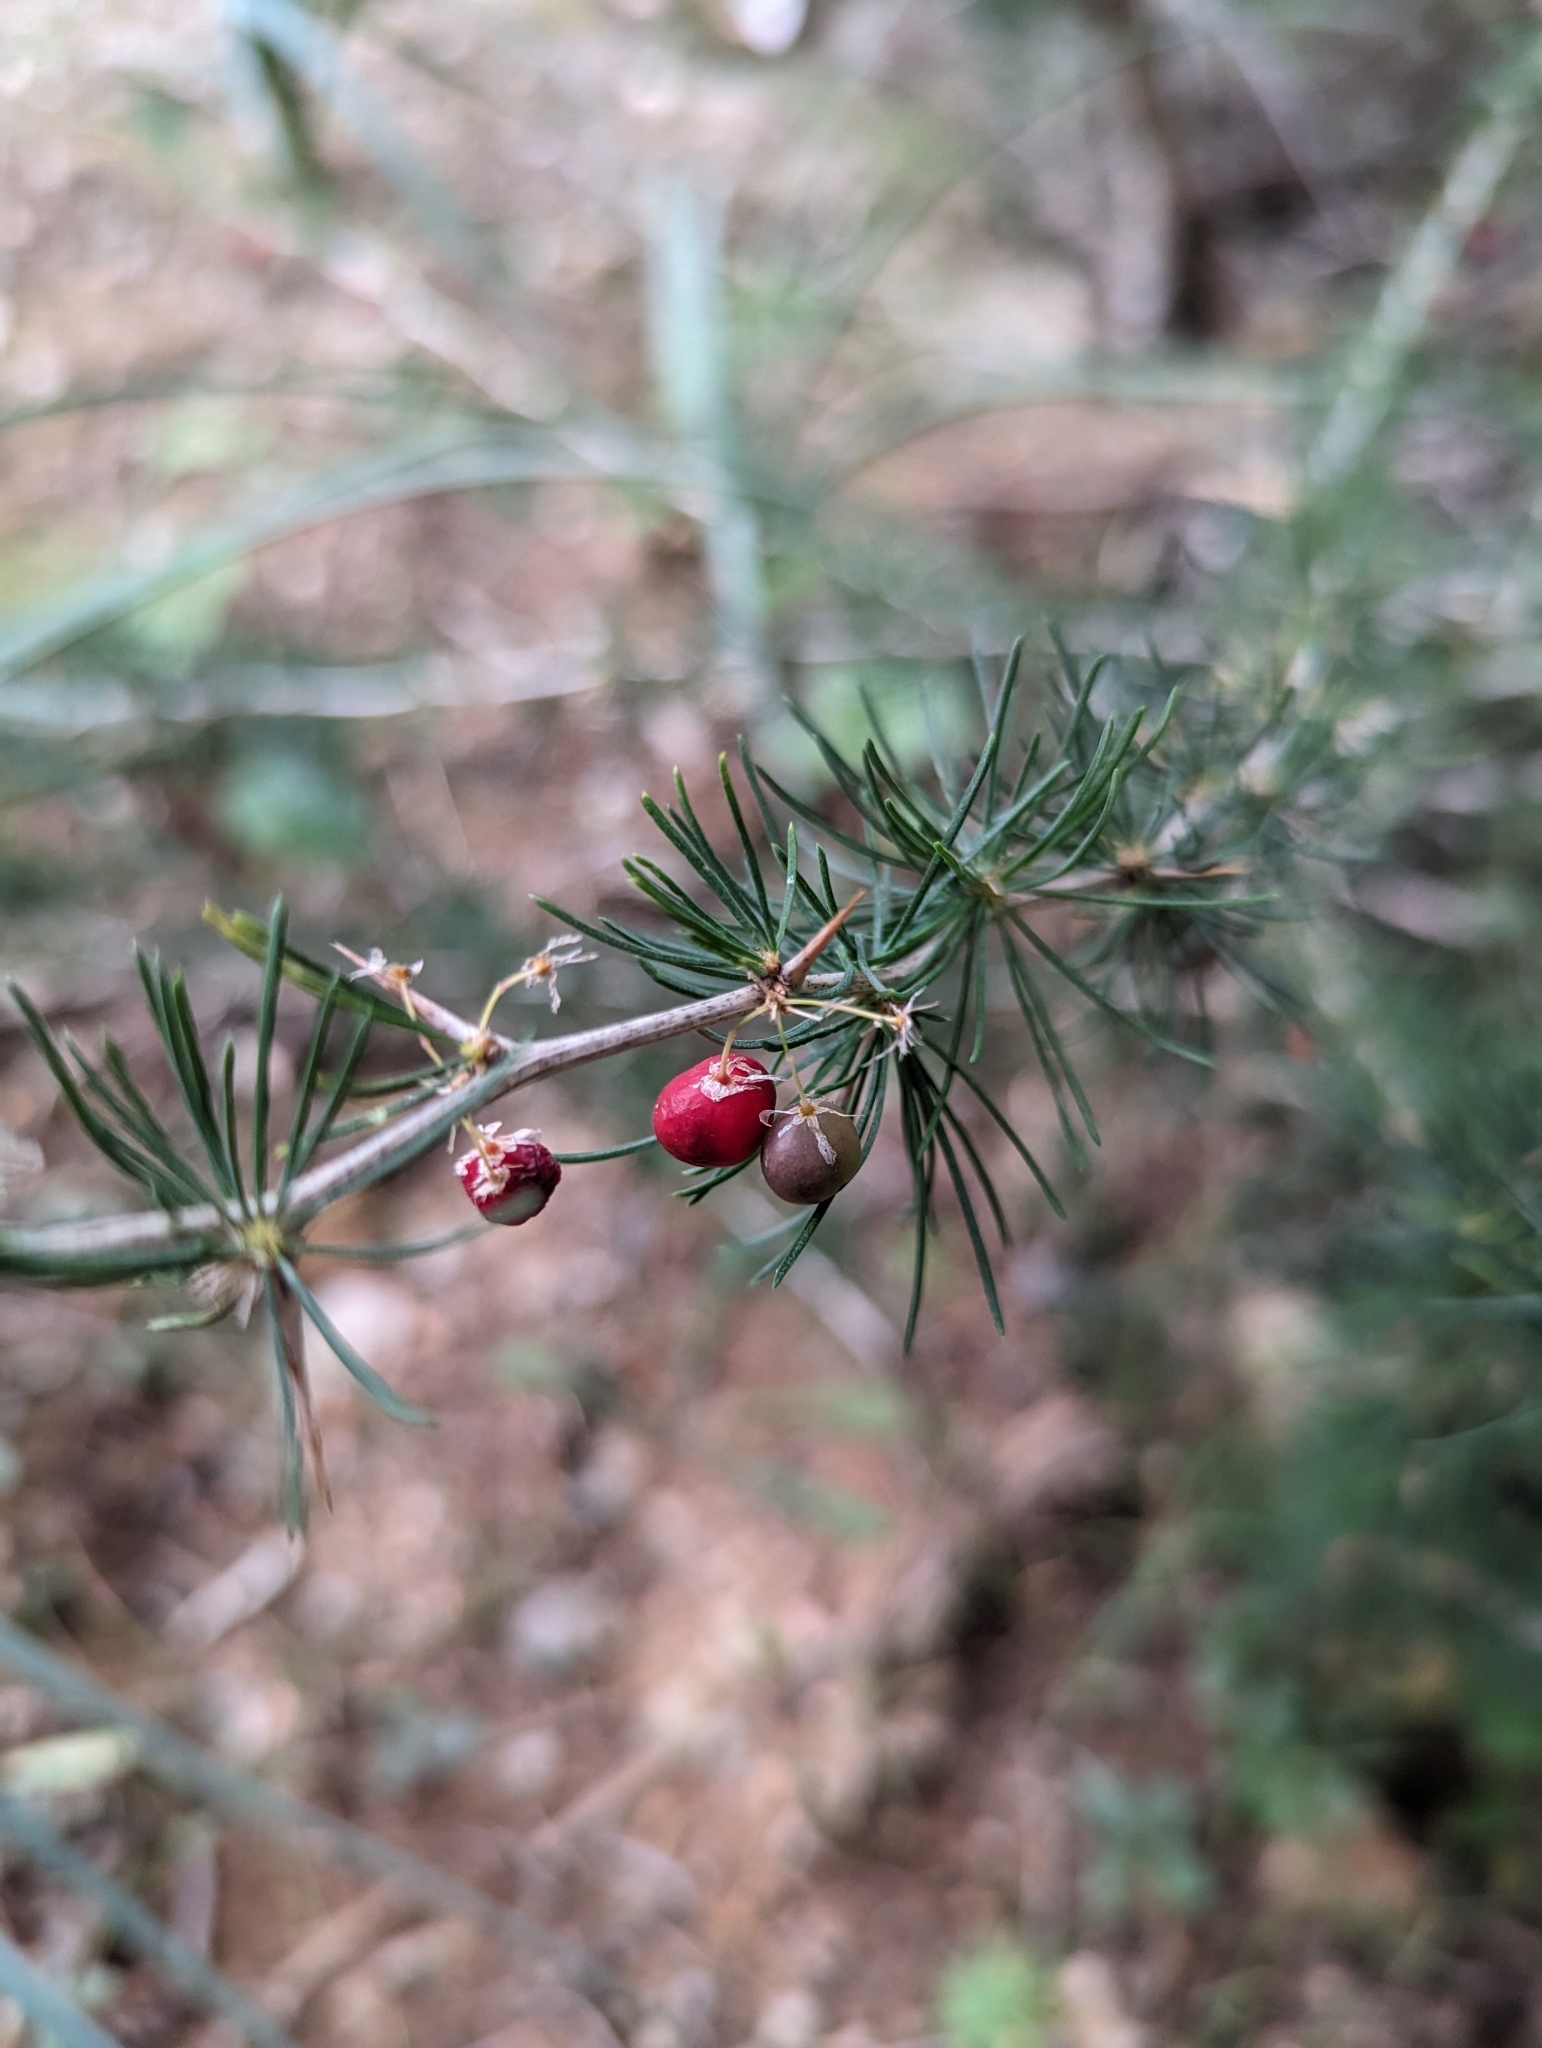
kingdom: Plantae
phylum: Tracheophyta
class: Liliopsida
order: Asparagales
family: Asparagaceae
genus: Asparagus
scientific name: Asparagus albus
